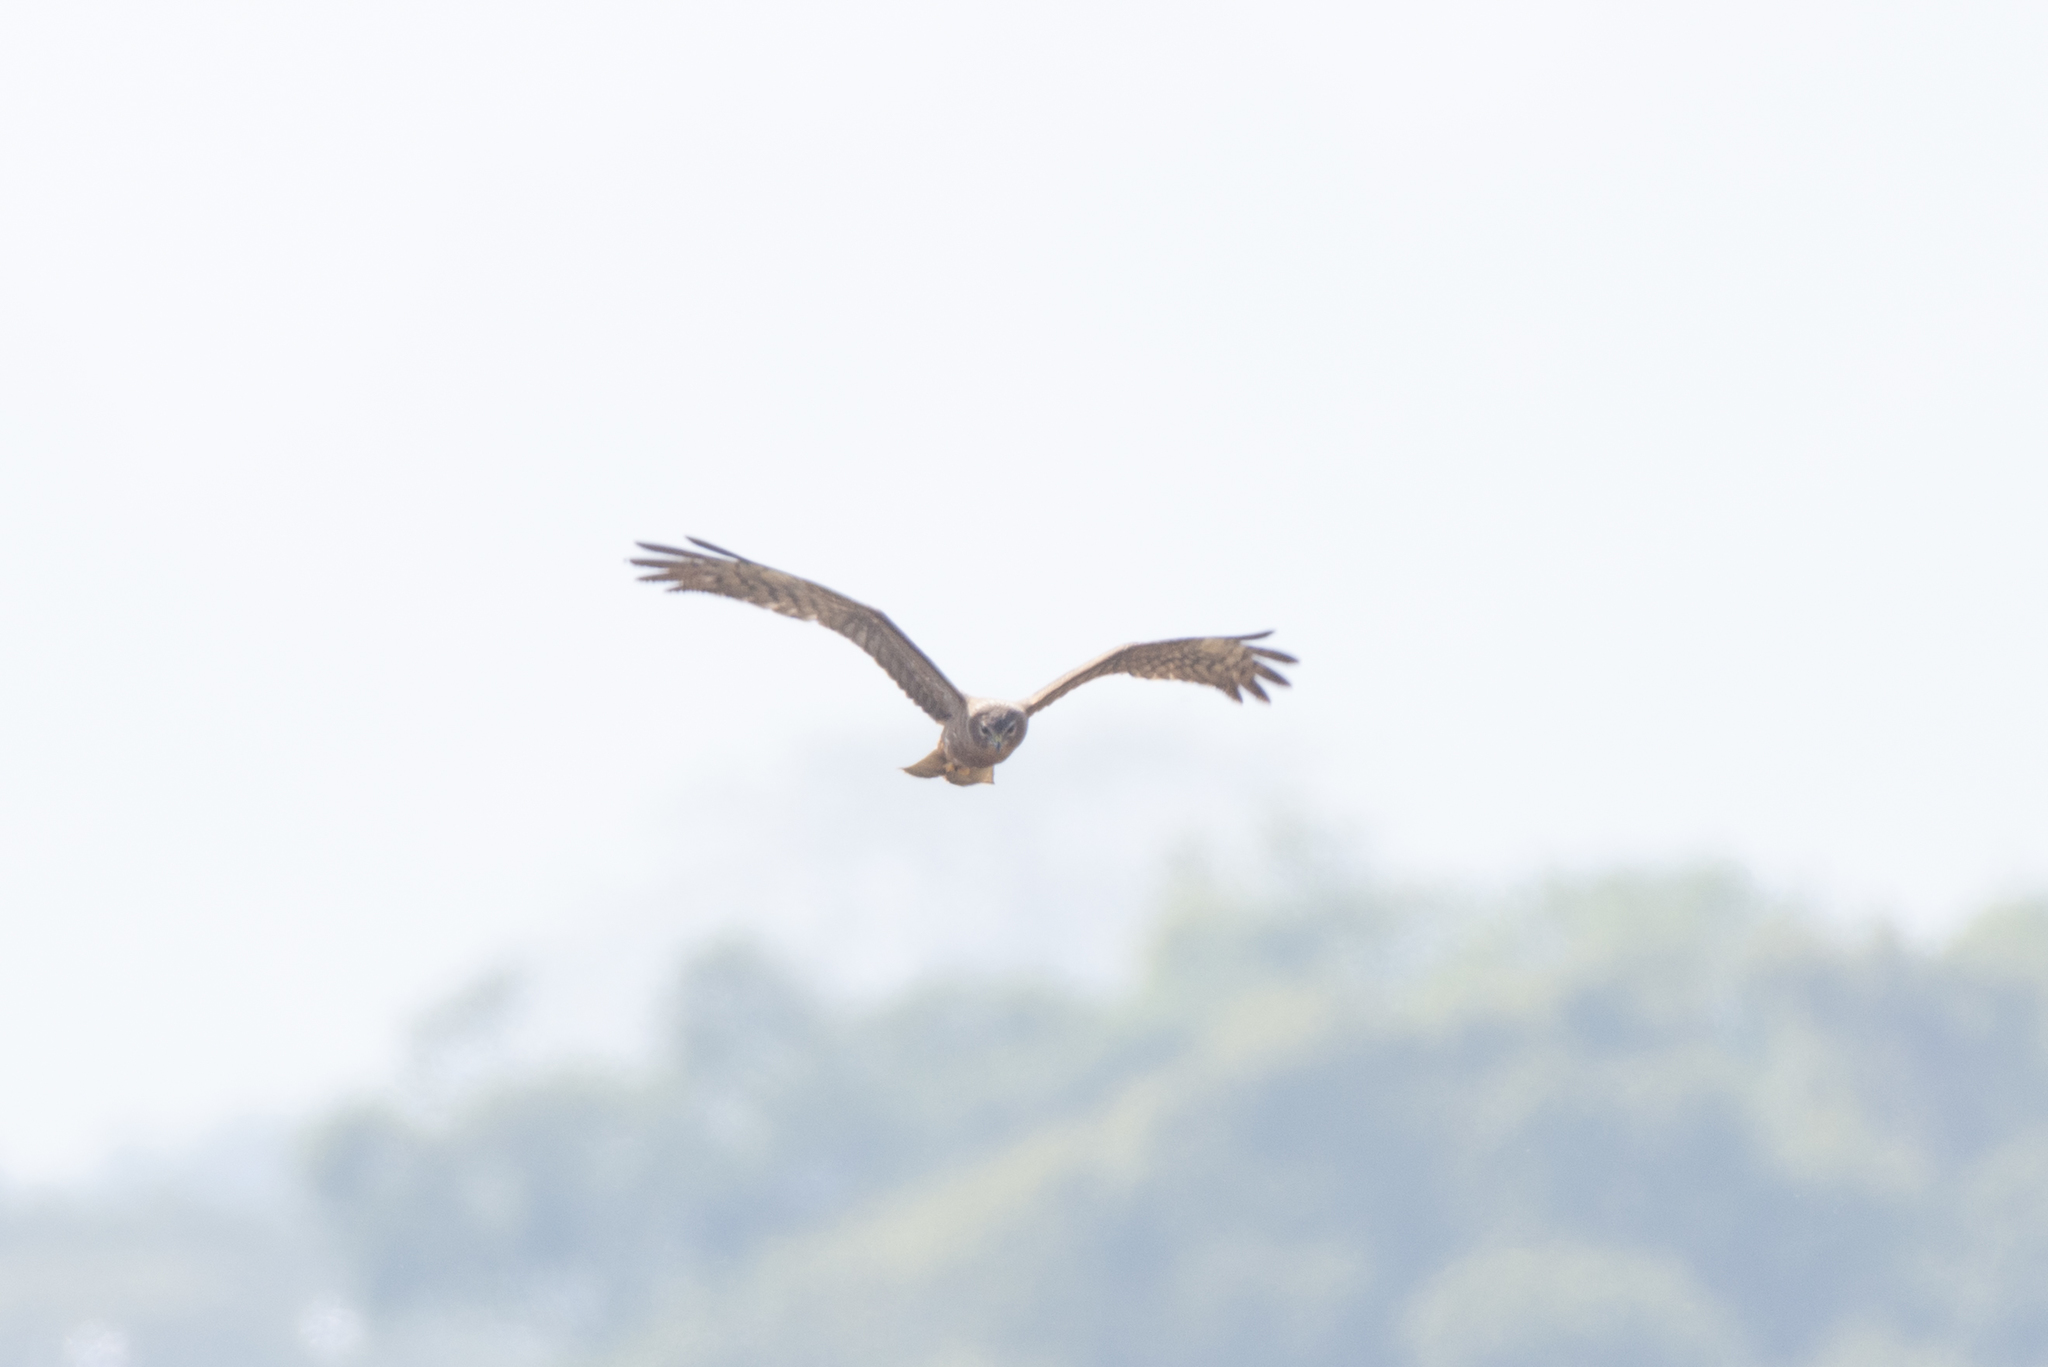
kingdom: Animalia
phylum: Chordata
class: Aves
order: Accipitriformes
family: Accipitridae
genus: Circus
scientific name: Circus melanoleucos
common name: Pied harrier
